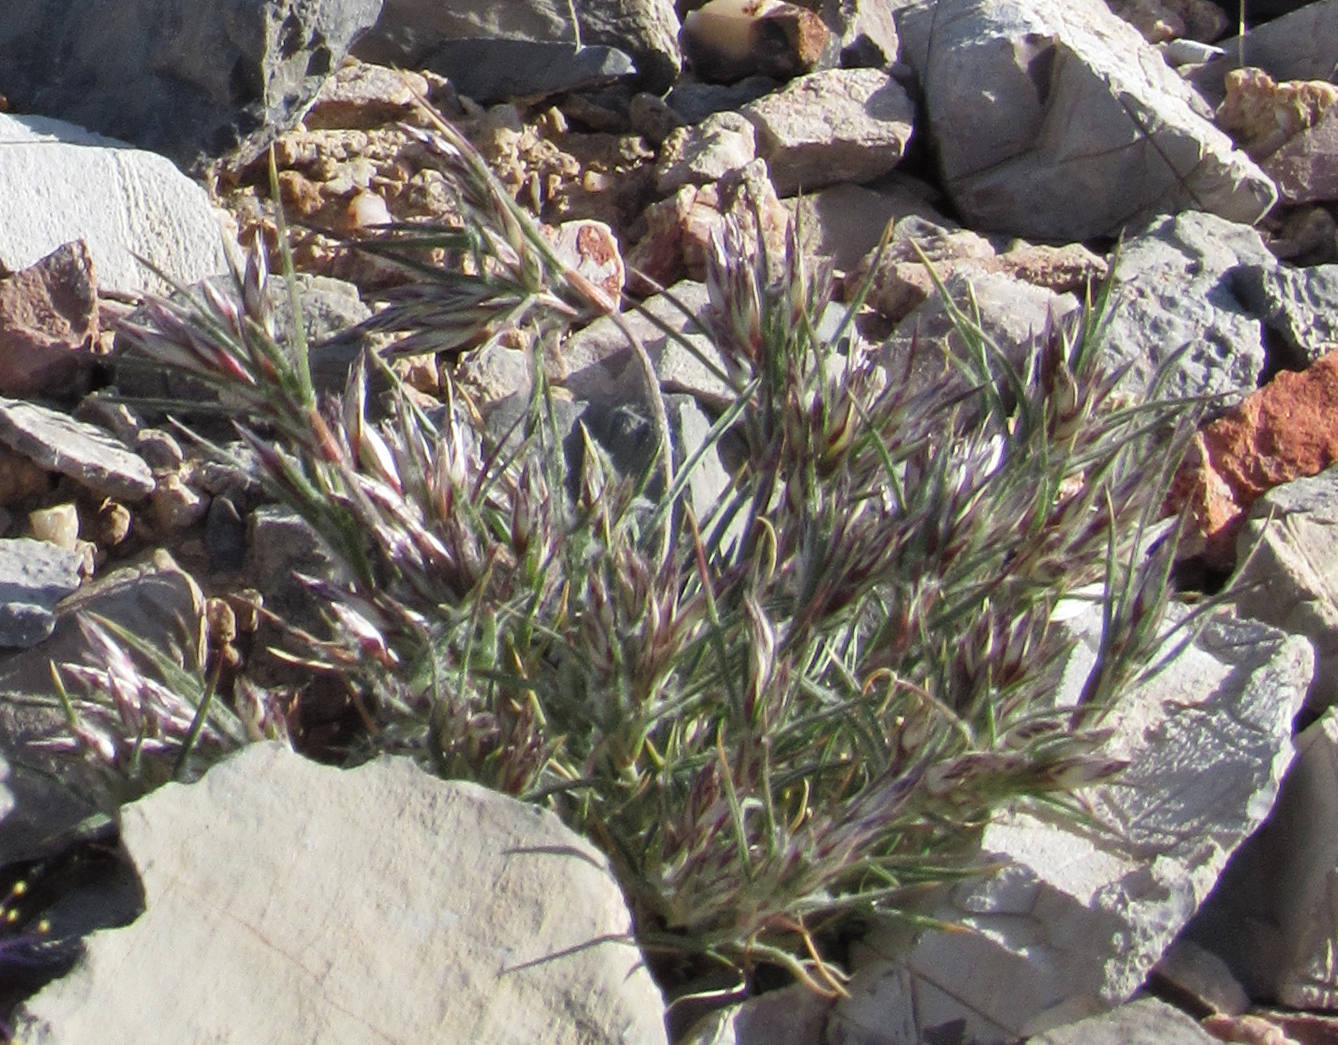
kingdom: Plantae
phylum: Tracheophyta
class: Liliopsida
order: Poales
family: Poaceae
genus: Dasyochloa
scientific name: Dasyochloa pulchella
